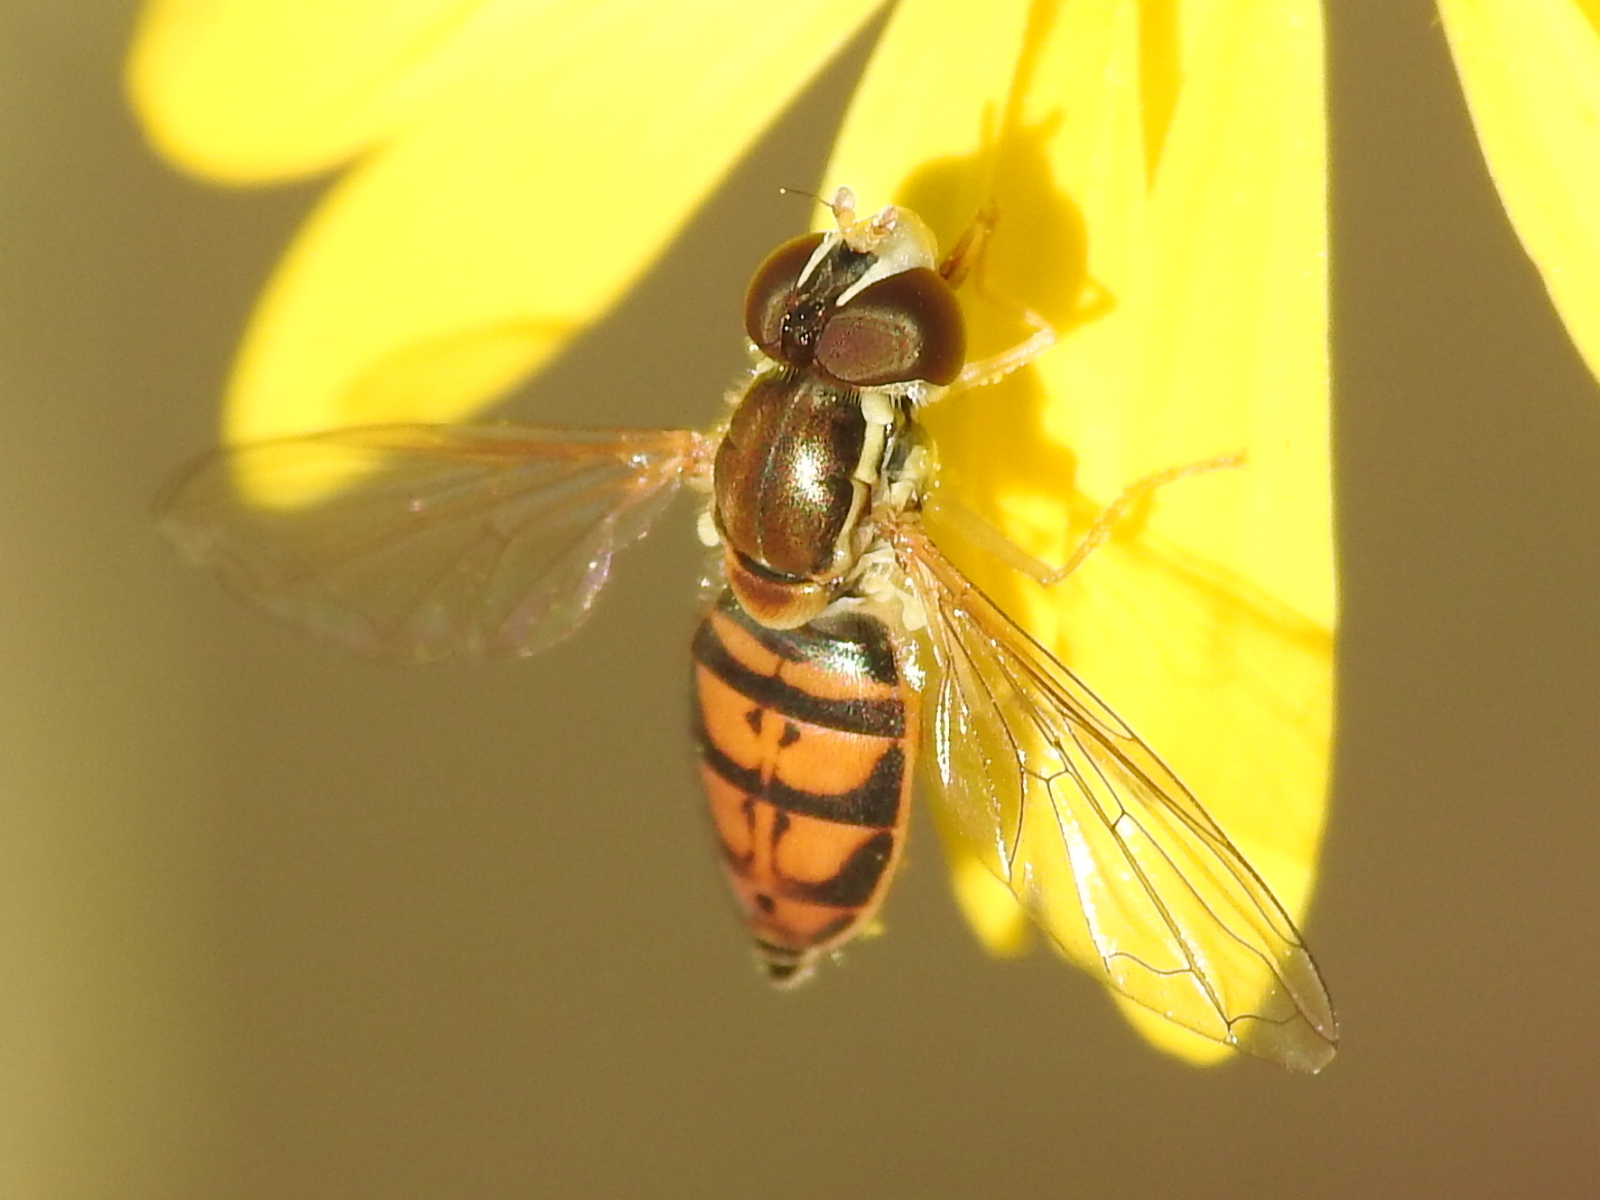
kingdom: Animalia
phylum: Arthropoda
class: Insecta
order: Diptera
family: Syrphidae
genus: Toxomerus
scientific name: Toxomerus marginatus
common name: Syrphid fly
